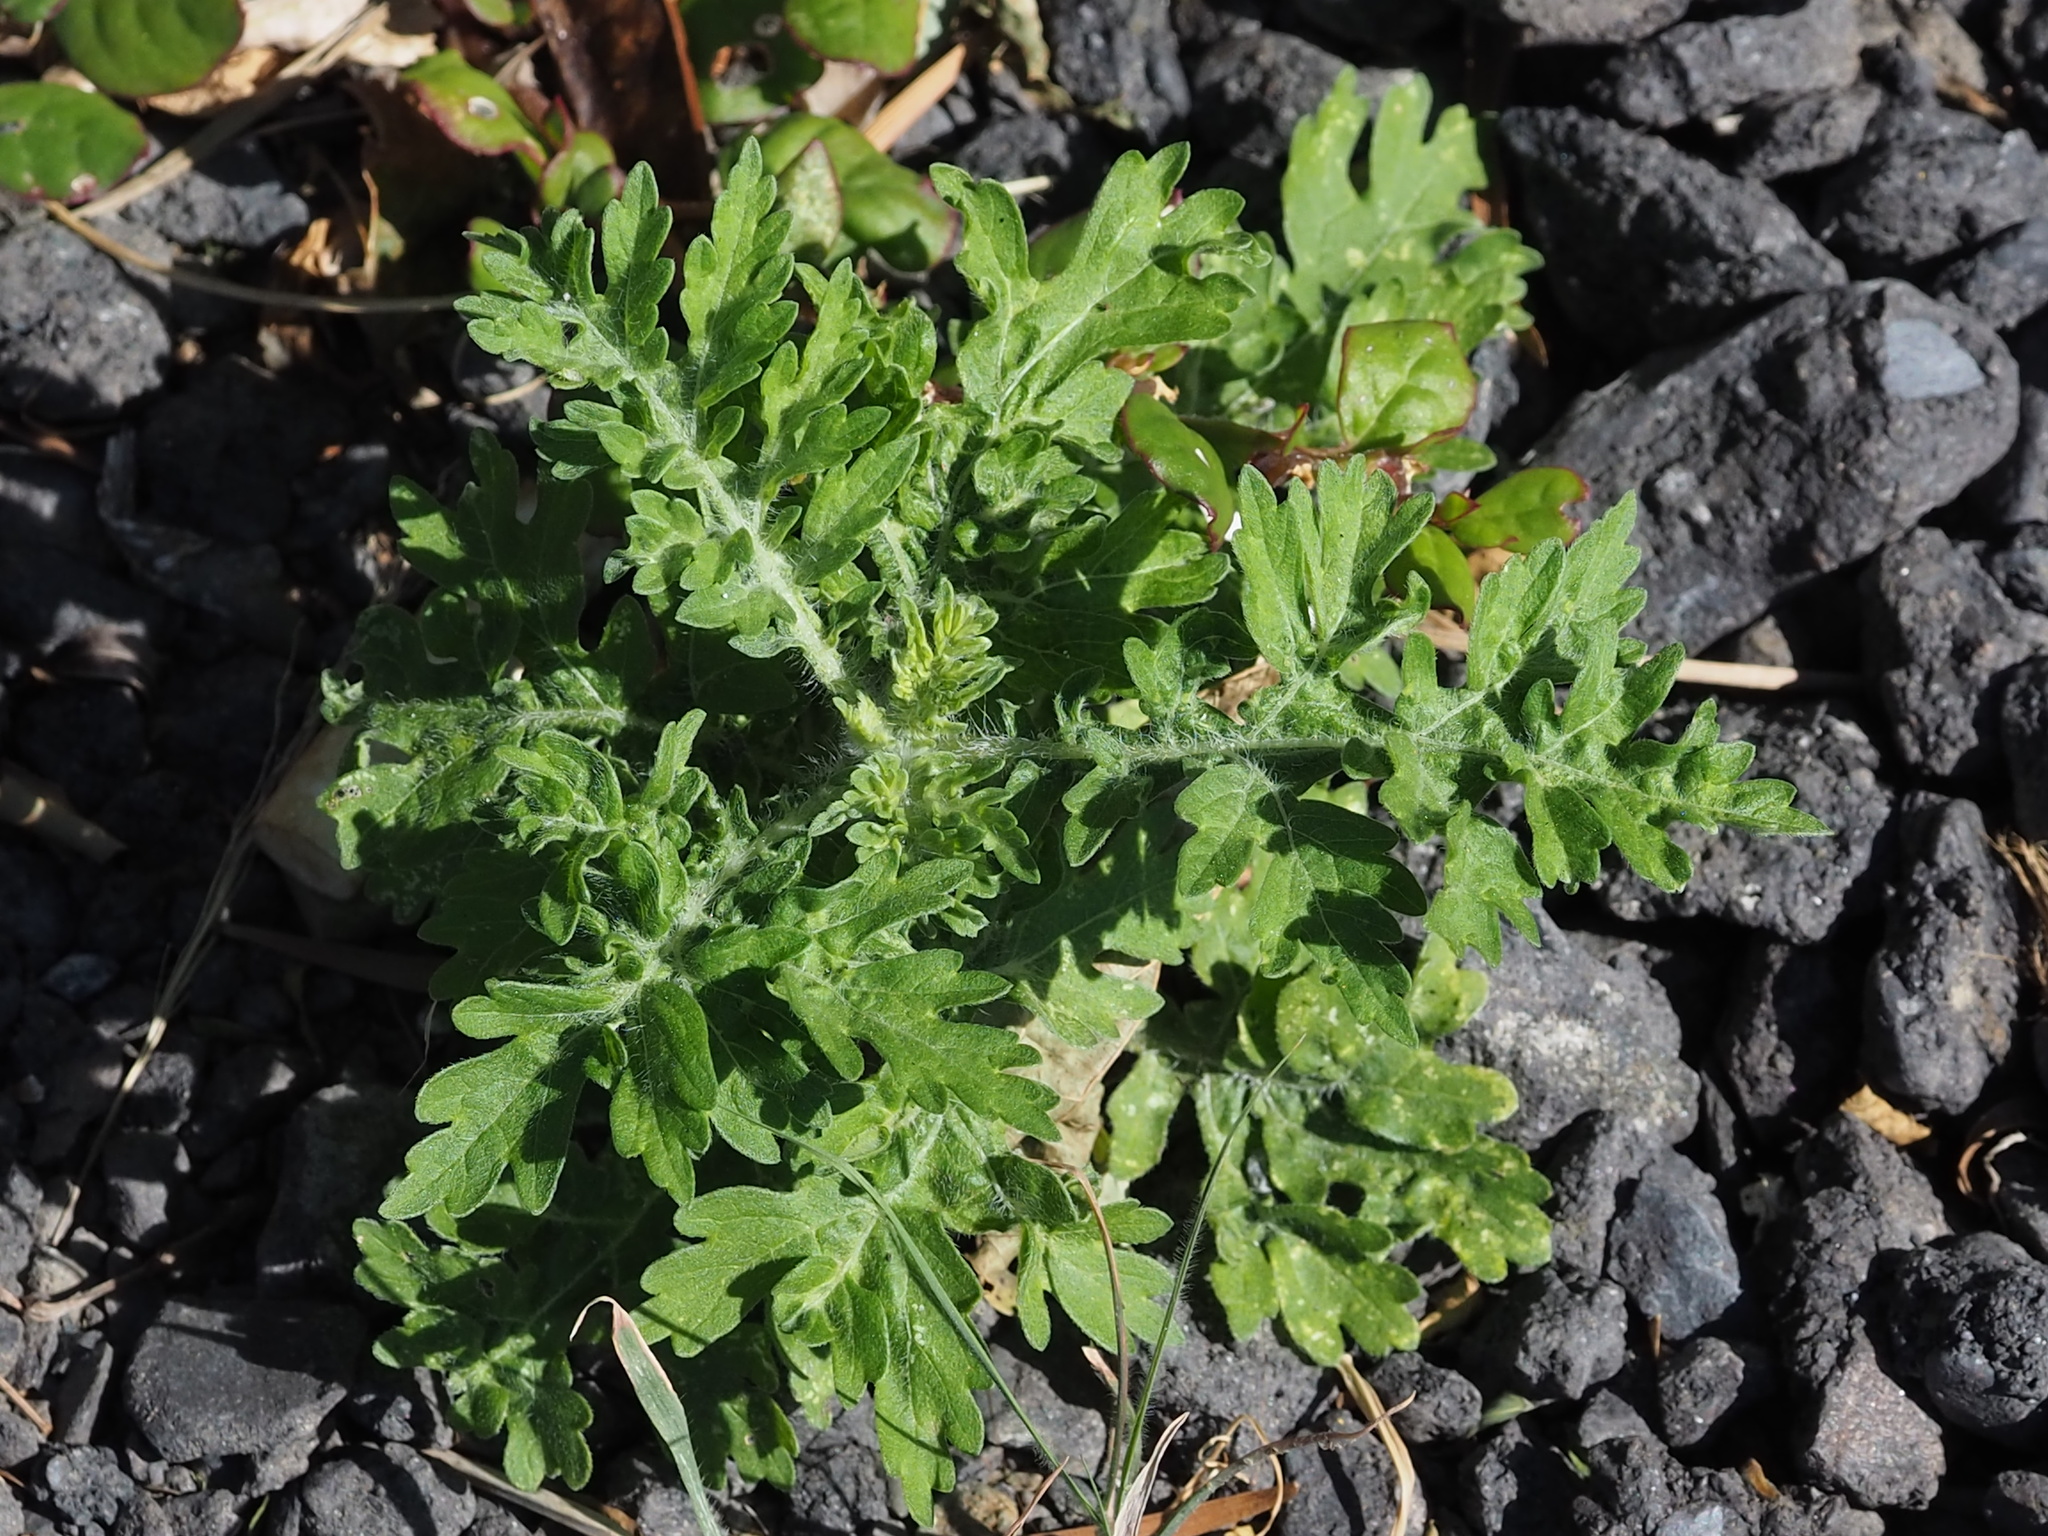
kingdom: Plantae
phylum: Tracheophyta
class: Magnoliopsida
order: Asterales
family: Asteraceae
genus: Parthenium
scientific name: Parthenium hysterophorus
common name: Santa maria feverfew
